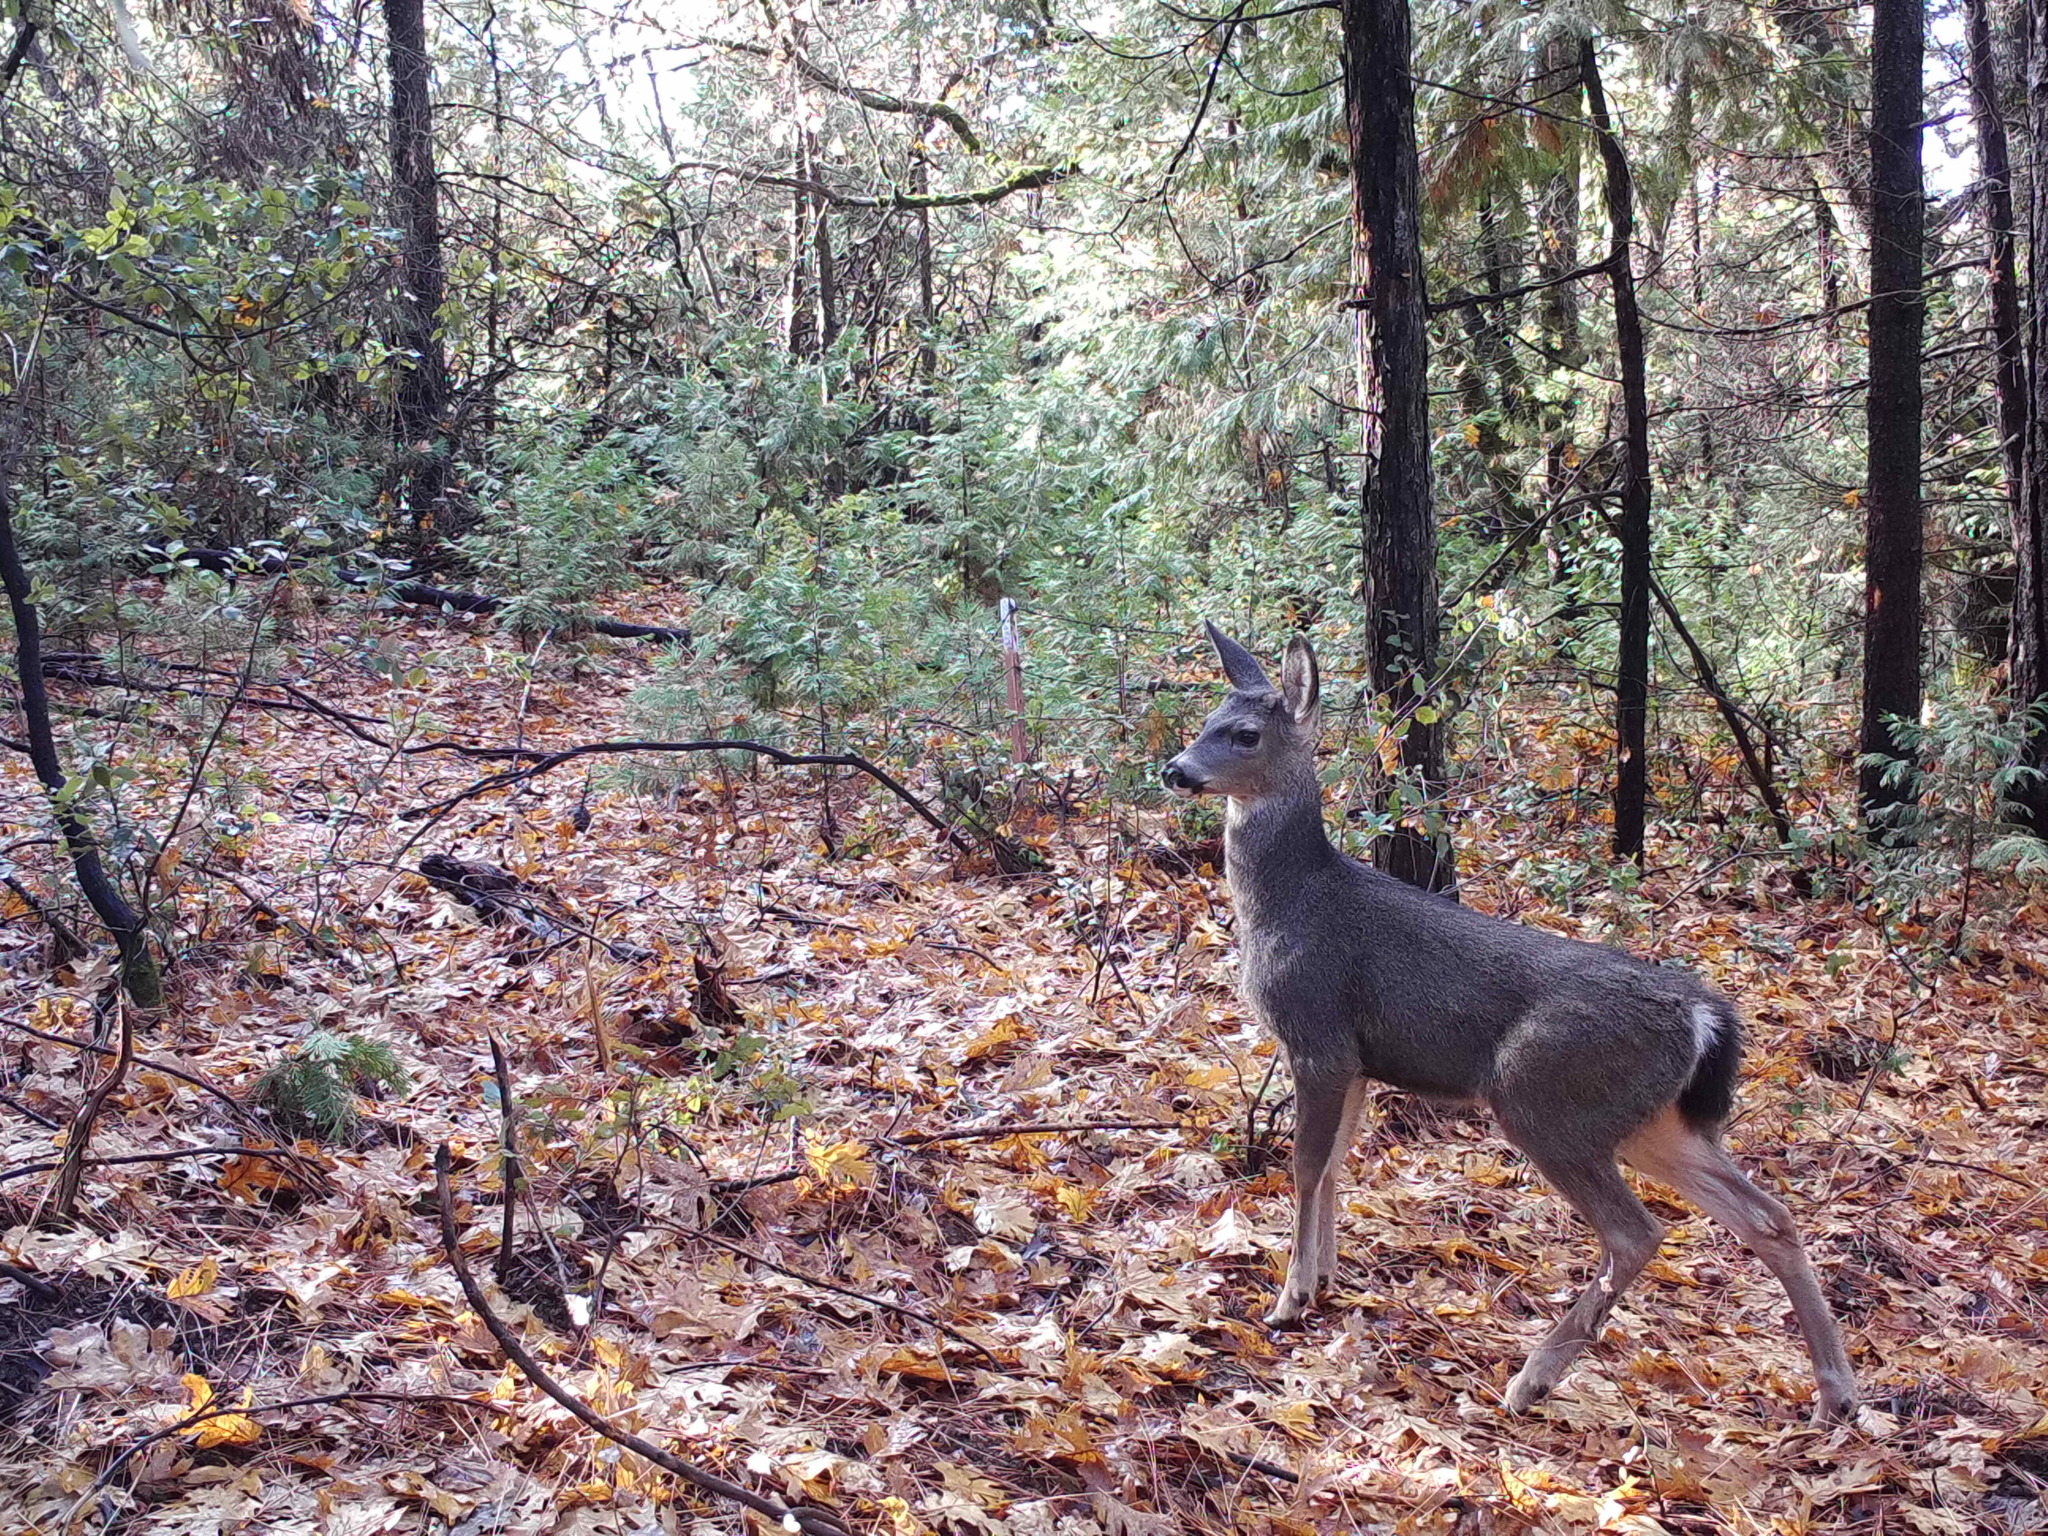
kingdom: Animalia
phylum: Chordata
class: Mammalia
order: Artiodactyla
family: Cervidae
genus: Odocoileus
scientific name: Odocoileus hemionus
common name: Mule deer
